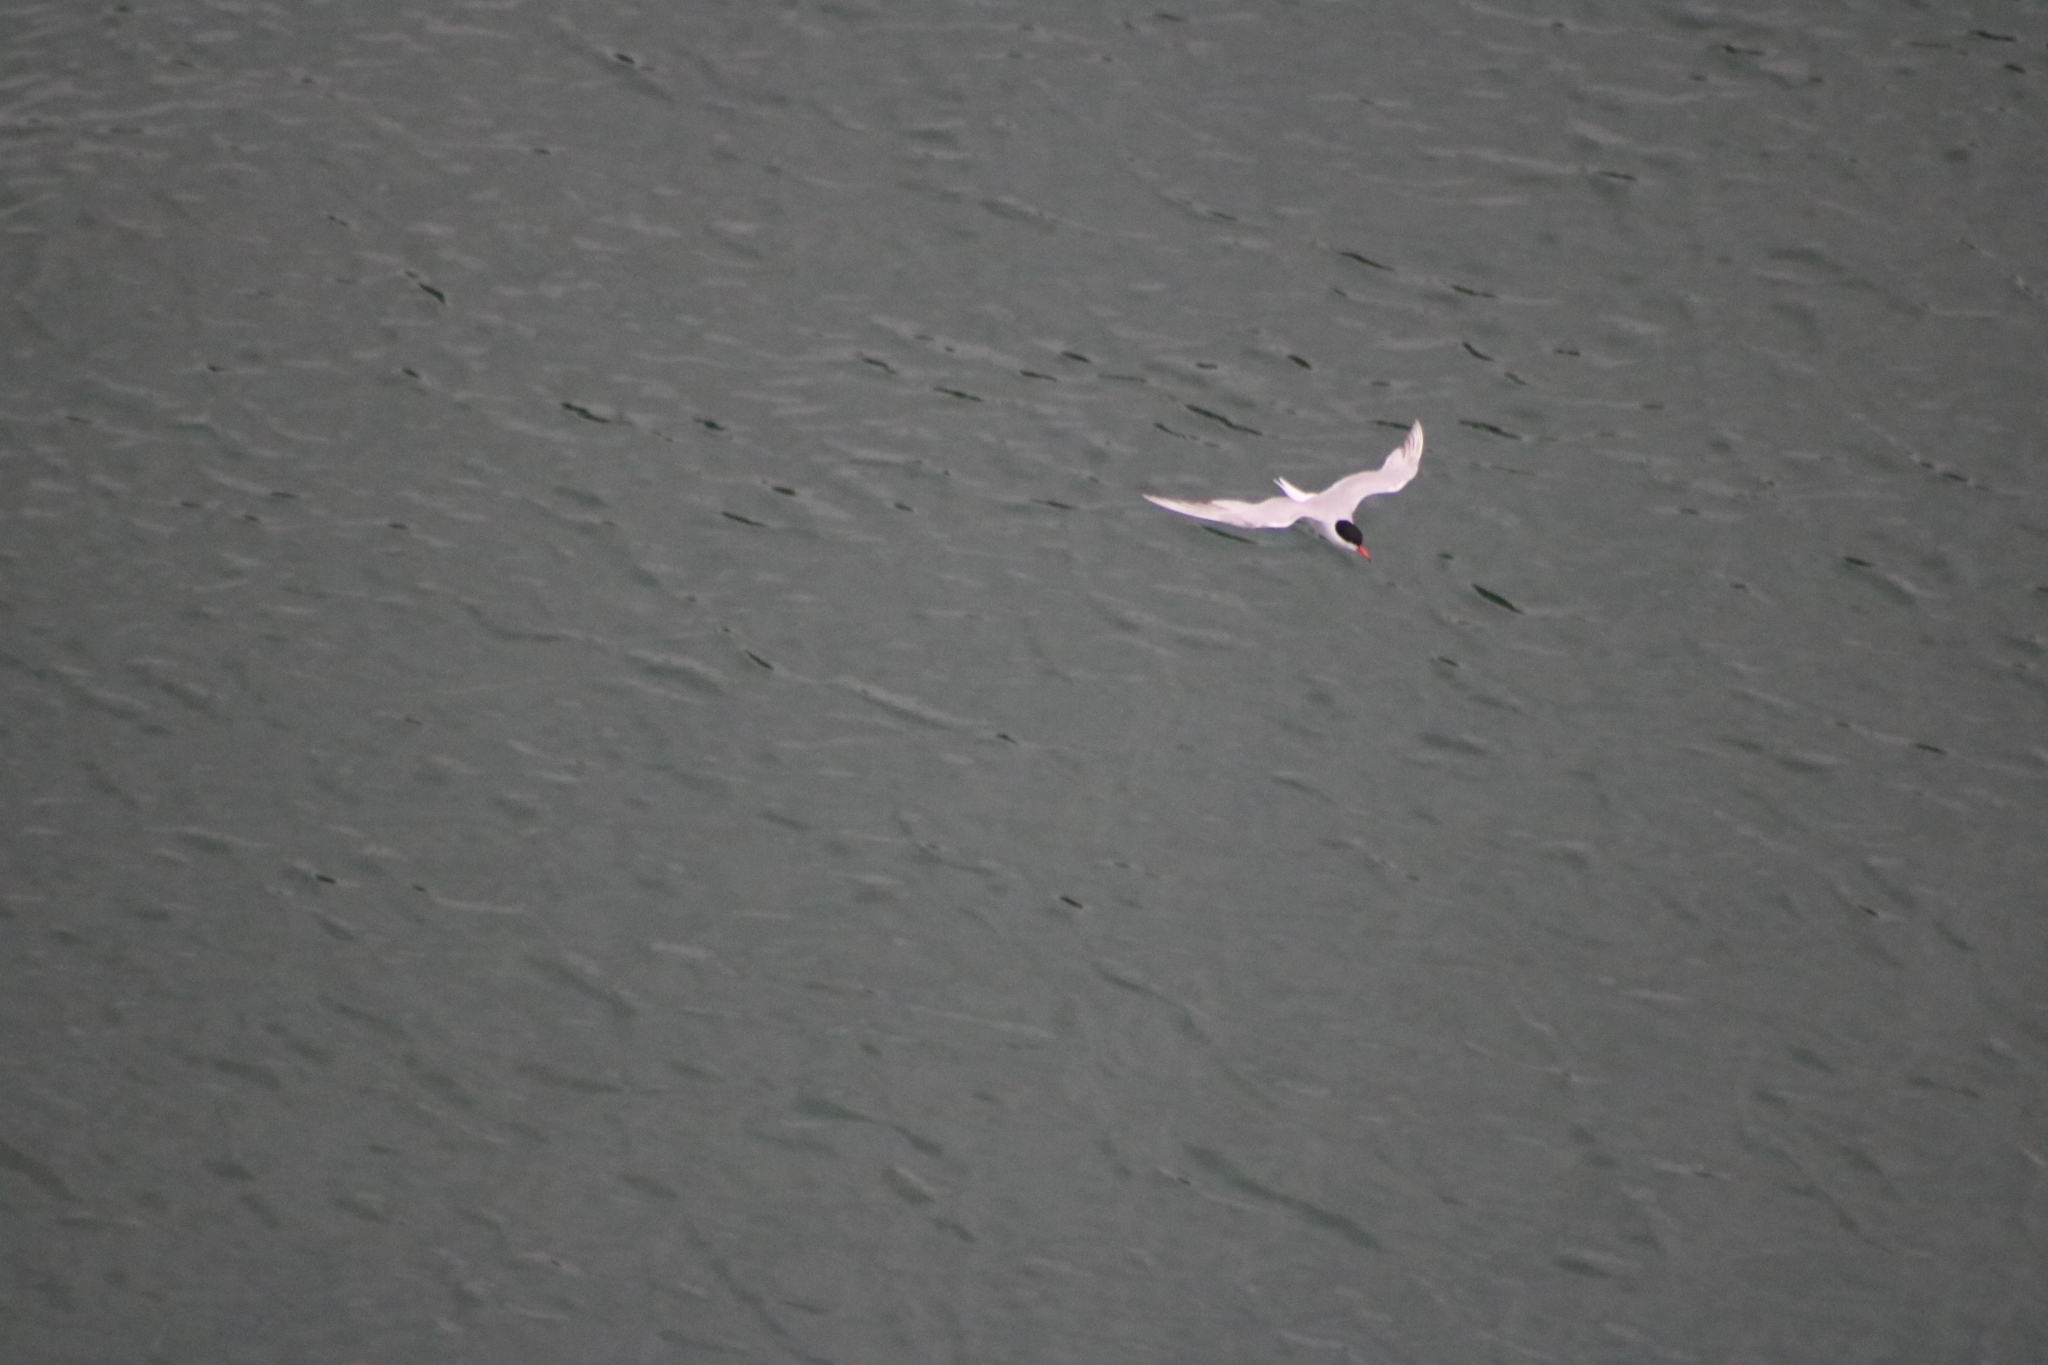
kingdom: Animalia
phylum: Chordata
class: Aves
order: Charadriiformes
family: Laridae
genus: Sterna
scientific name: Sterna hirundo
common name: Common tern
